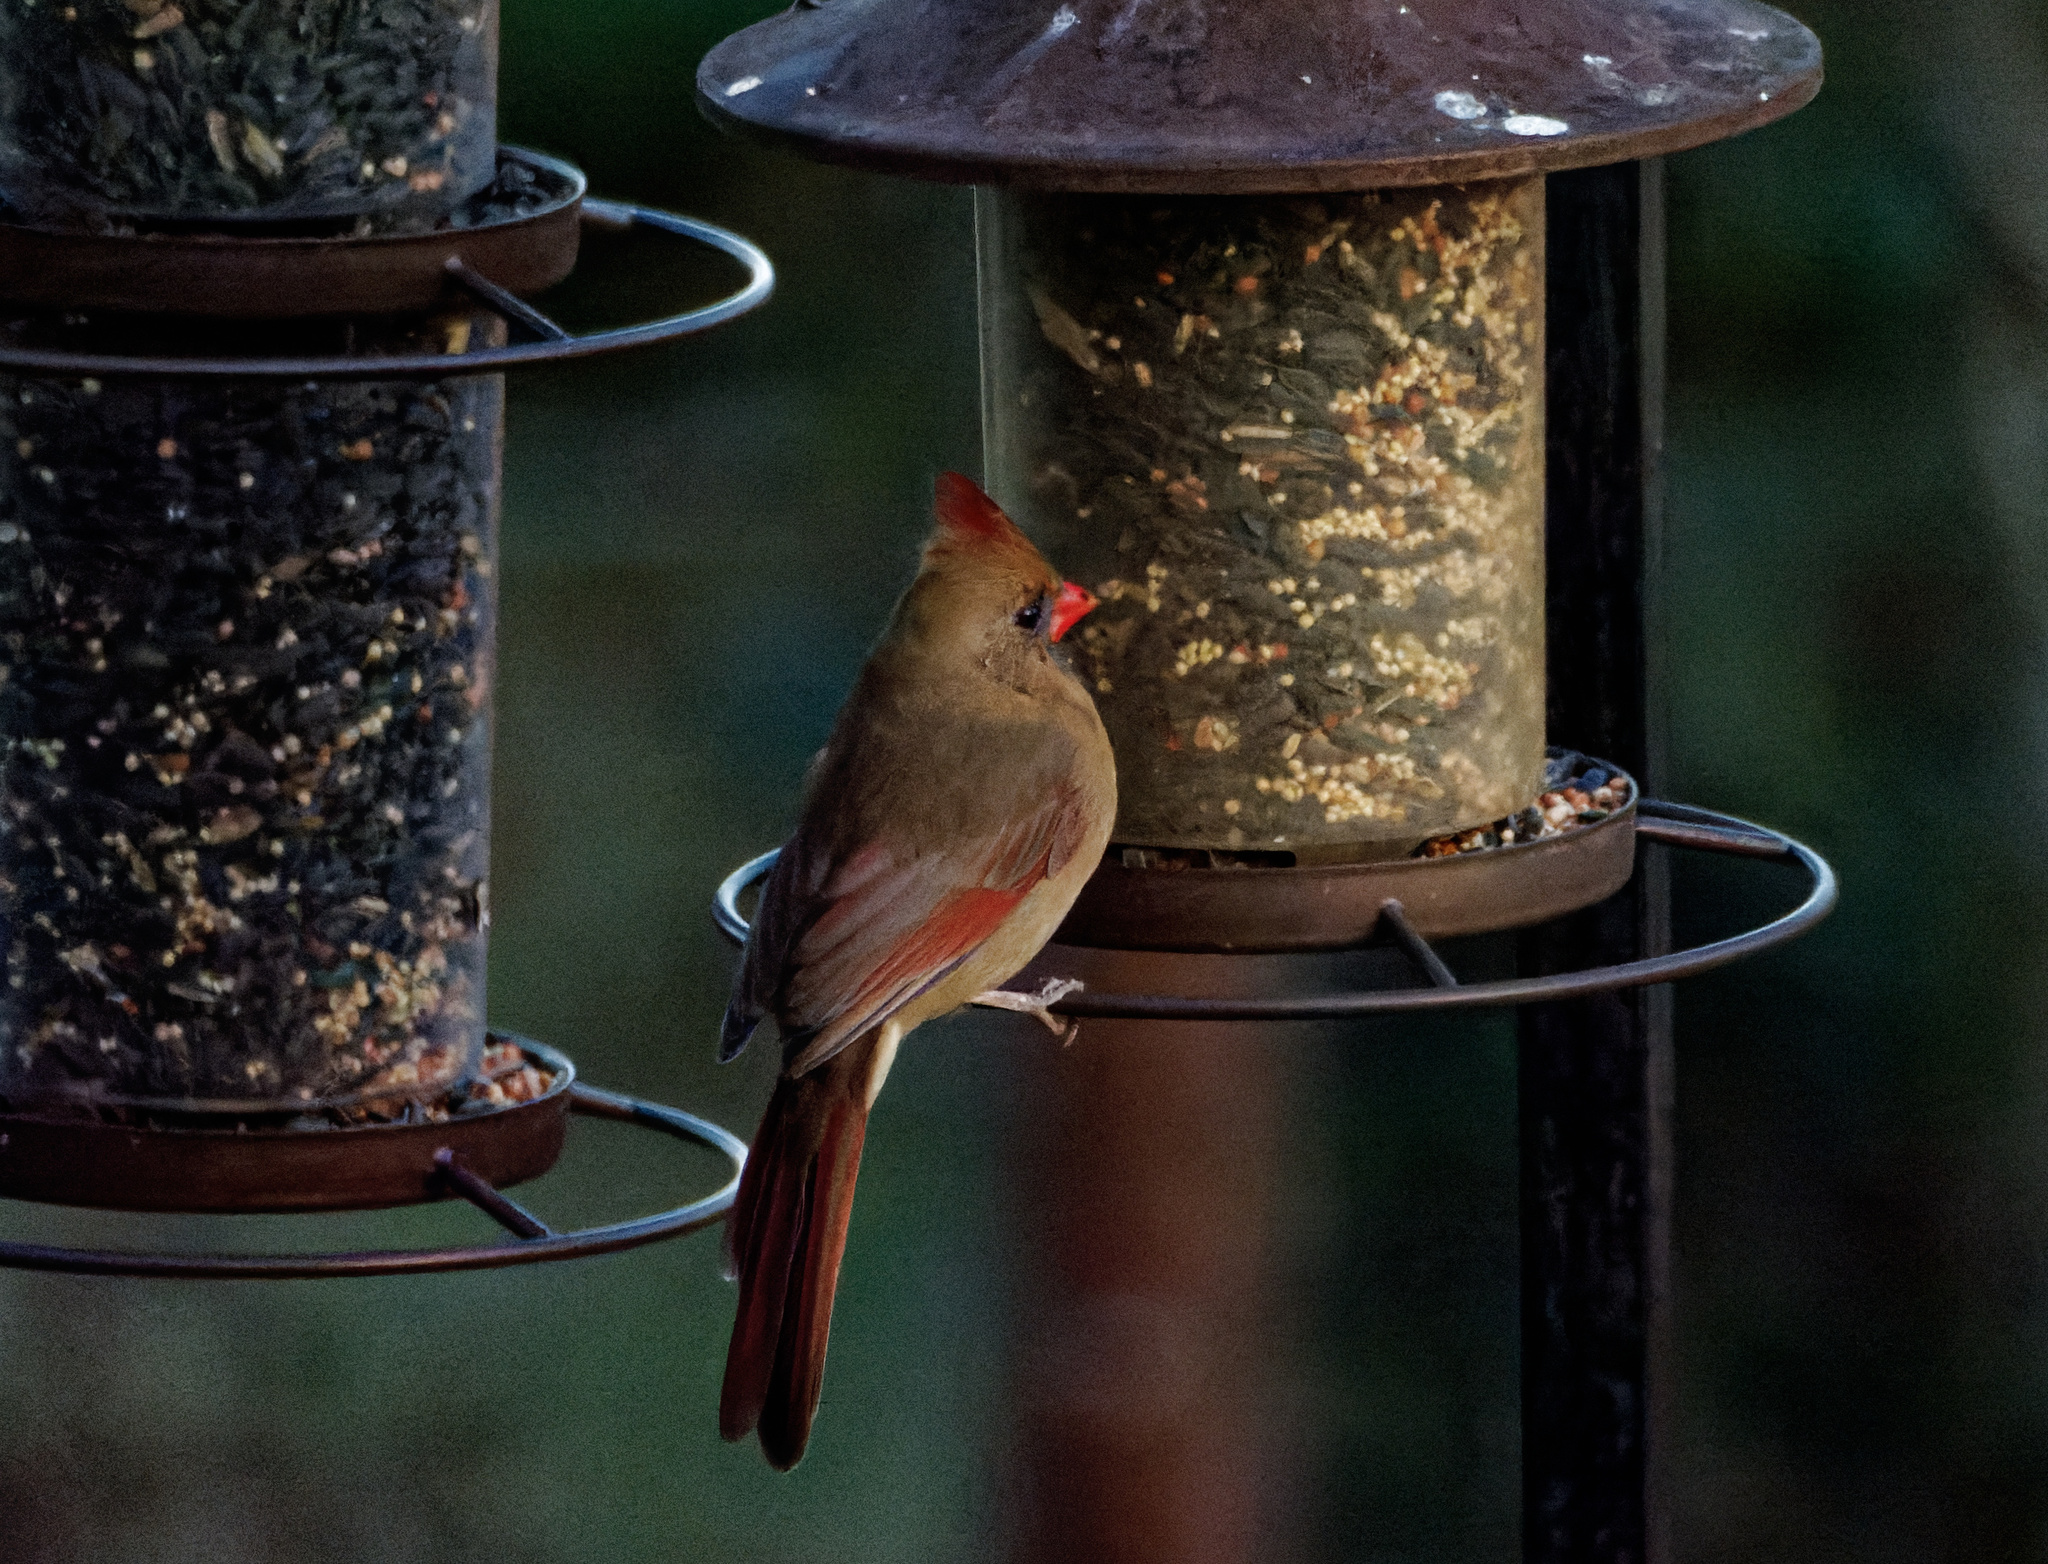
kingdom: Animalia
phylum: Chordata
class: Aves
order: Passeriformes
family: Cardinalidae
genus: Cardinalis
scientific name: Cardinalis cardinalis
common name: Northern cardinal
